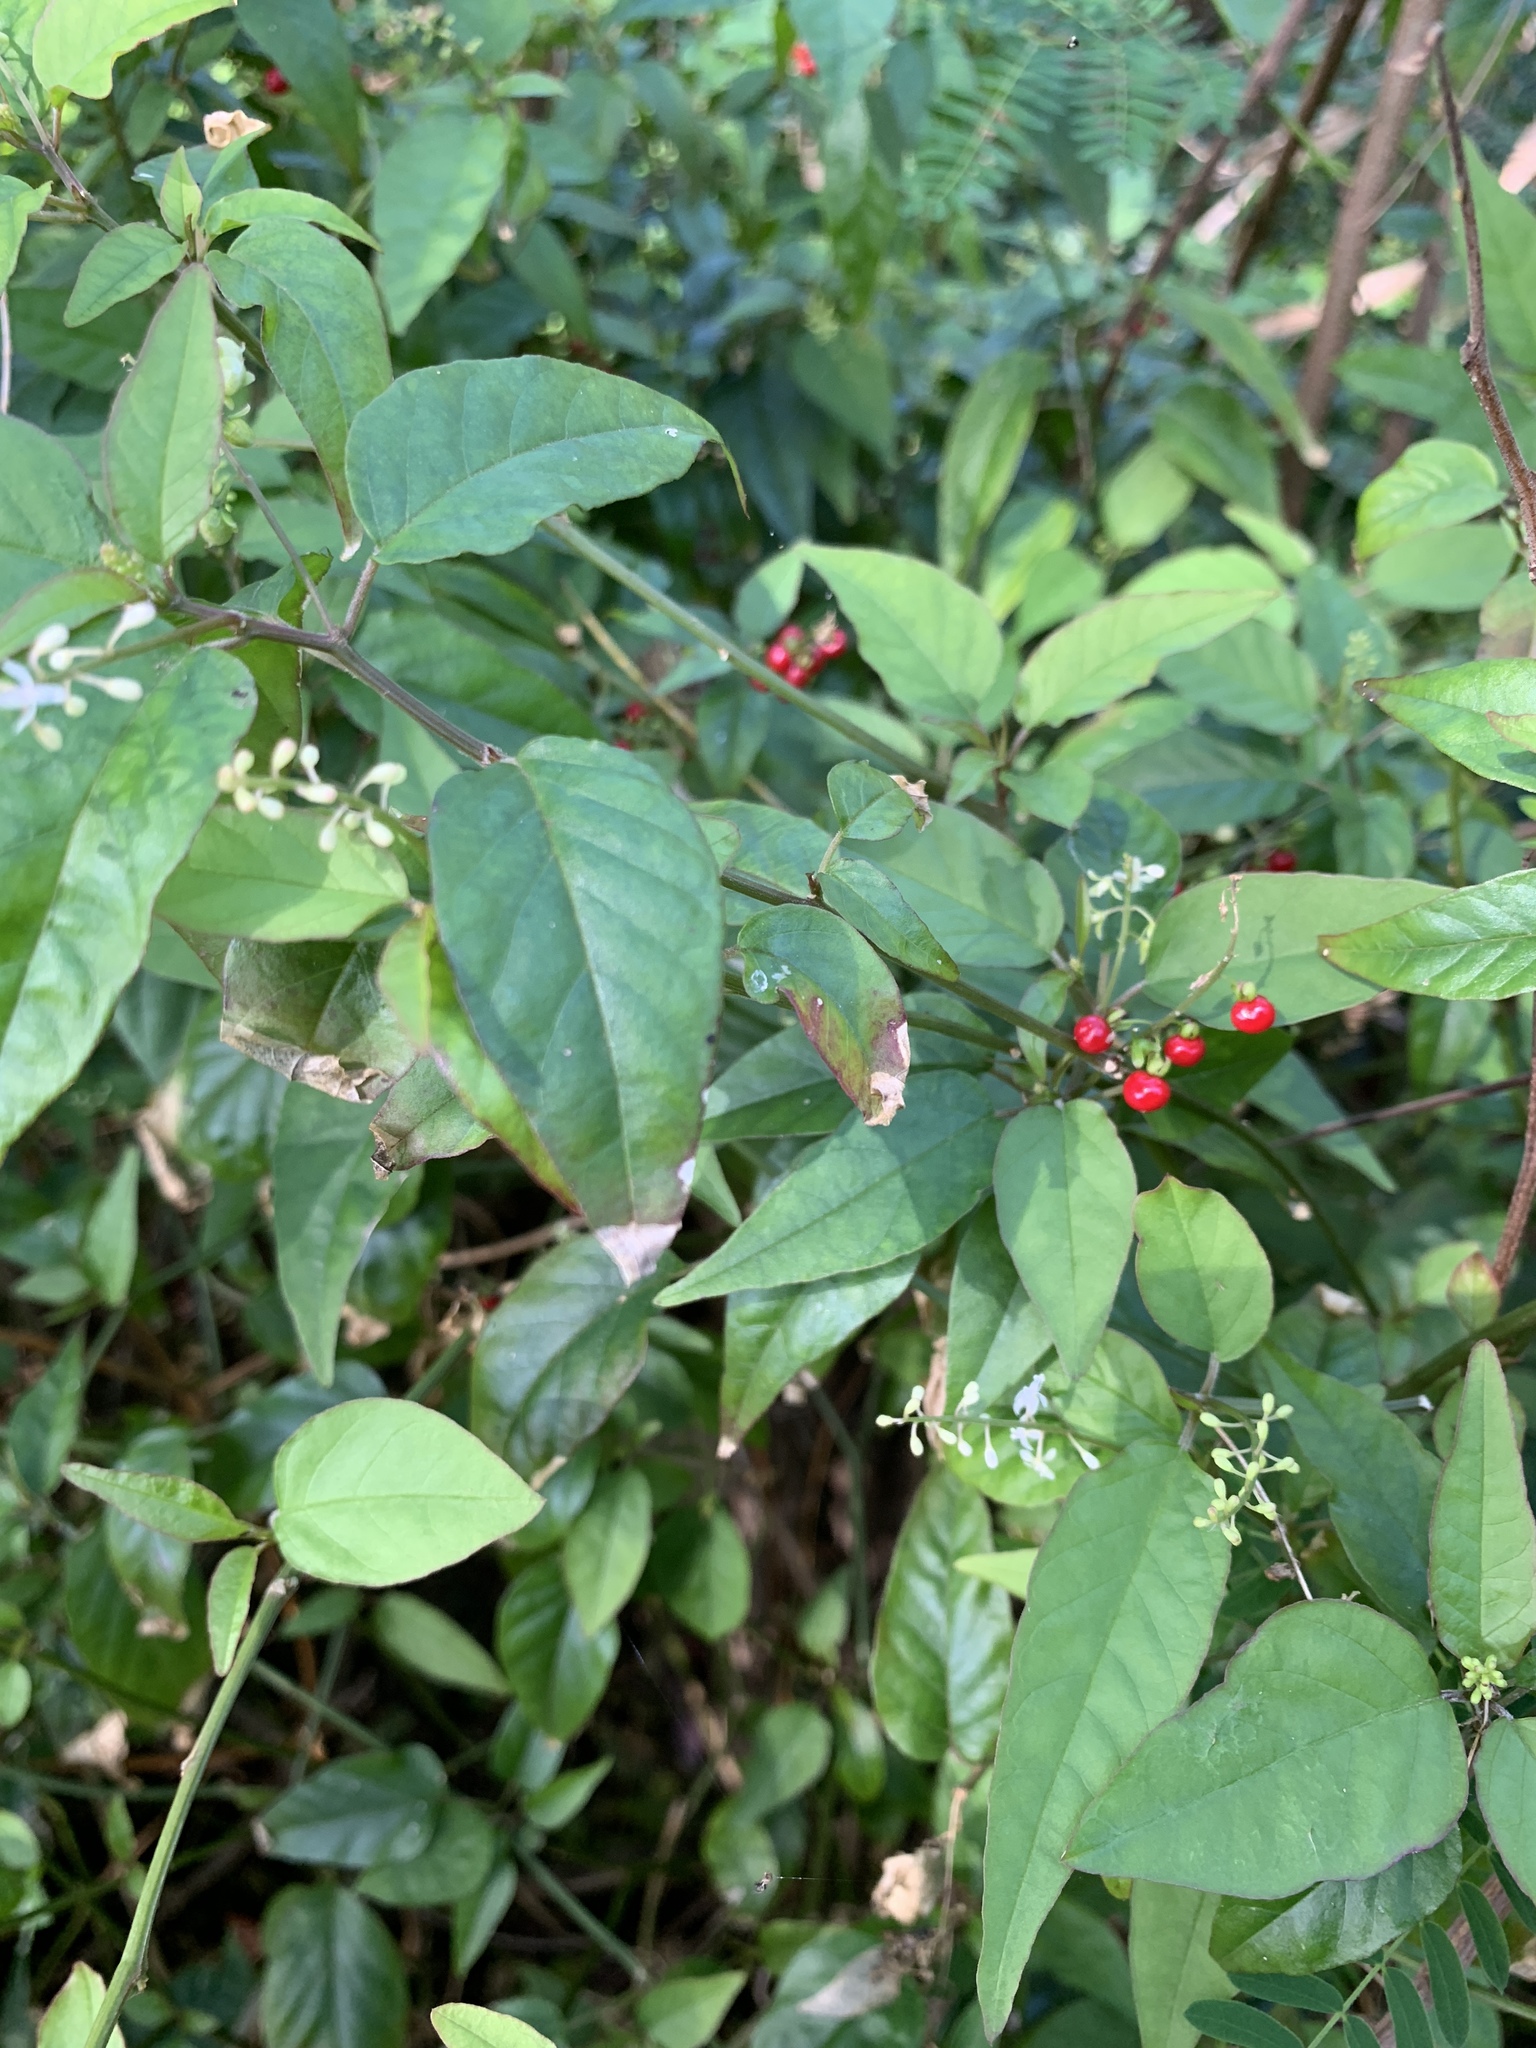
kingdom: Plantae
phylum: Tracheophyta
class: Magnoliopsida
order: Caryophyllales
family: Phytolaccaceae
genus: Rivina
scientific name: Rivina humilis
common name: Rougeplant
